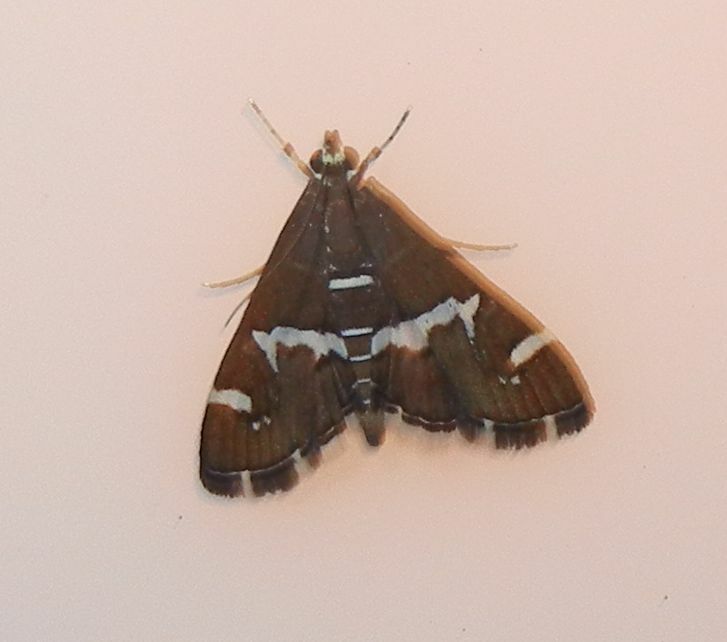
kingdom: Animalia
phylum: Arthropoda
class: Insecta
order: Lepidoptera
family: Crambidae
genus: Spoladea
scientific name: Spoladea recurvalis
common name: Beet webworm moth
